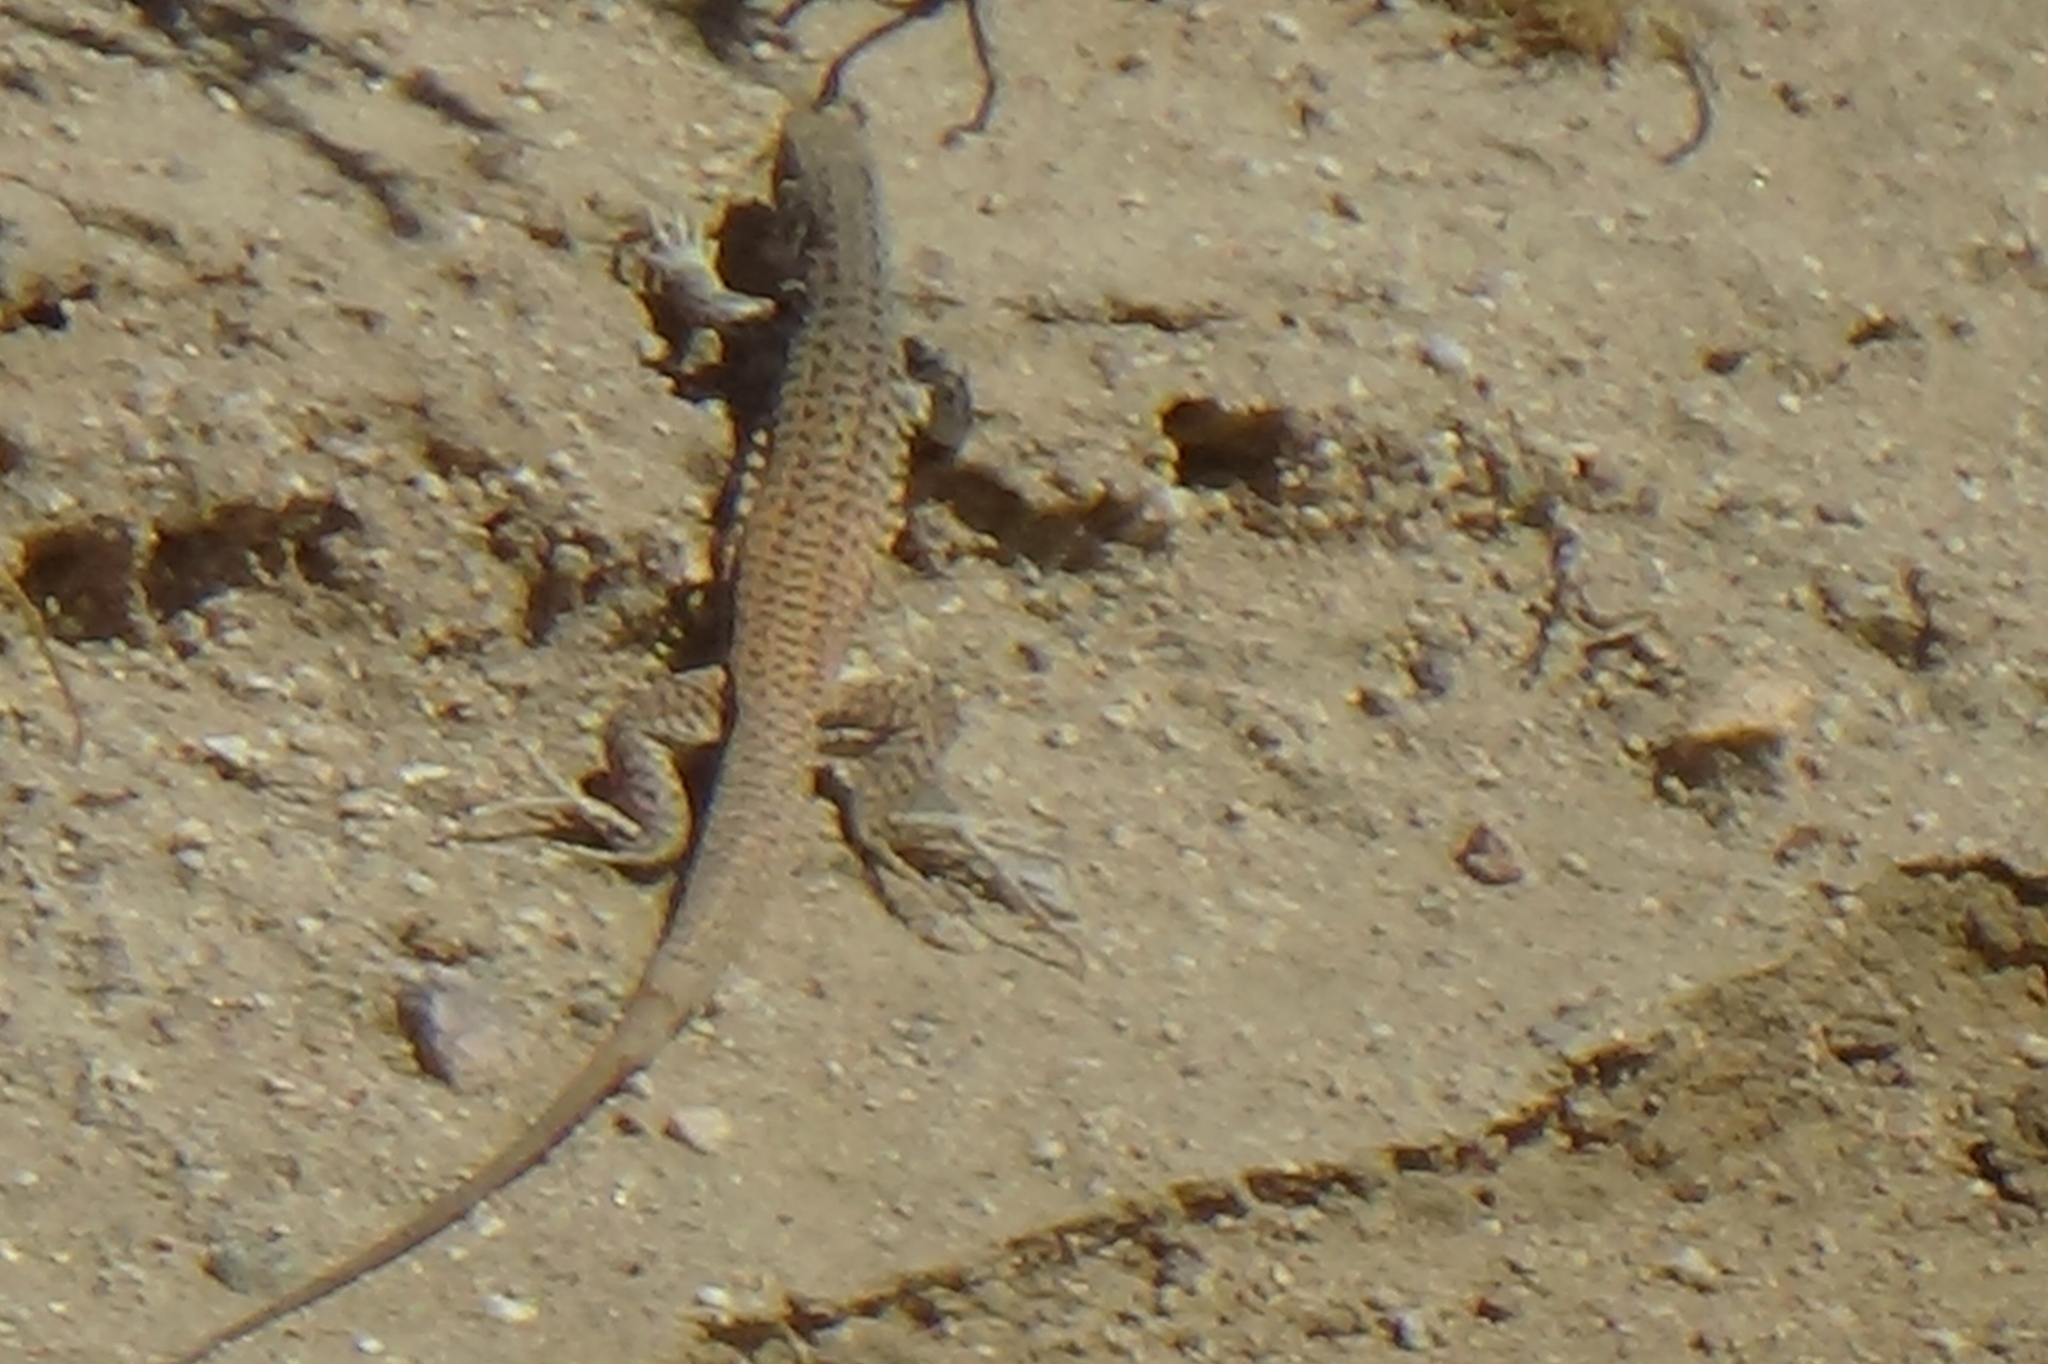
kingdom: Animalia
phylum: Chordata
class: Squamata
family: Teiidae
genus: Aspidoscelis
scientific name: Aspidoscelis tigris
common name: Tiger whiptail
